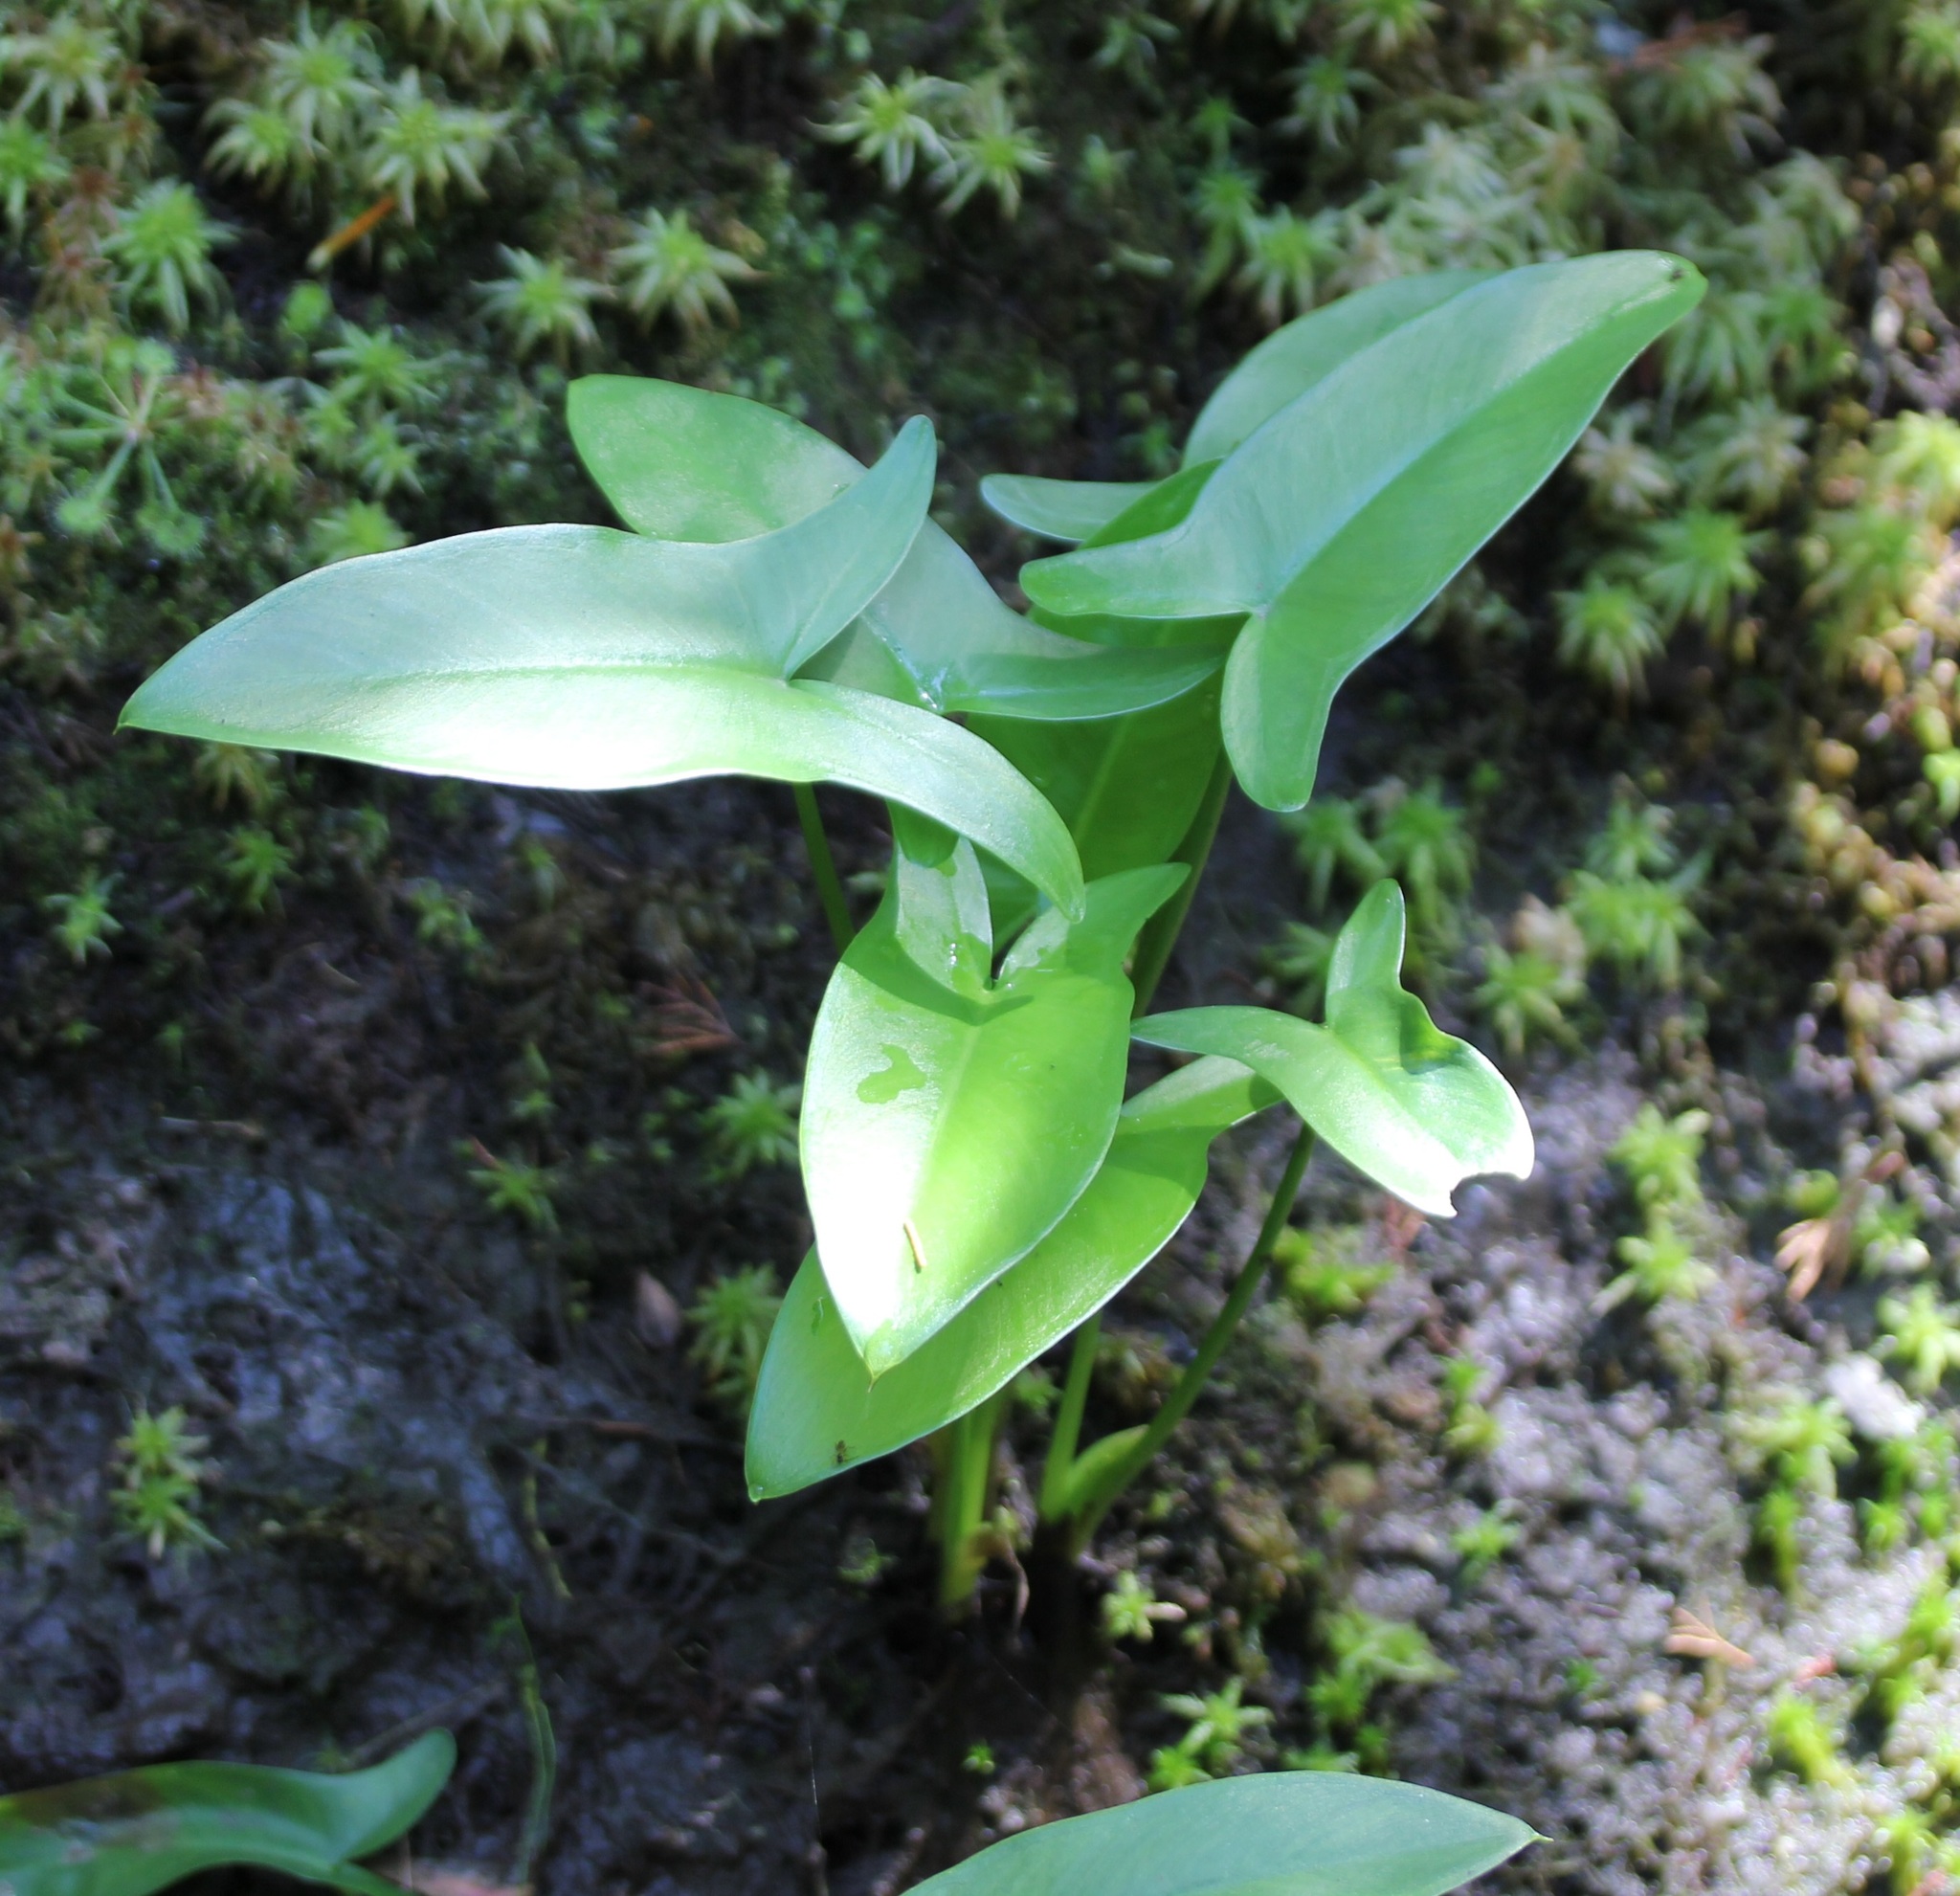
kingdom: Plantae
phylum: Tracheophyta
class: Liliopsida
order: Alismatales
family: Araceae
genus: Peltandra
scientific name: Peltandra virginica
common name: Arrow arum
